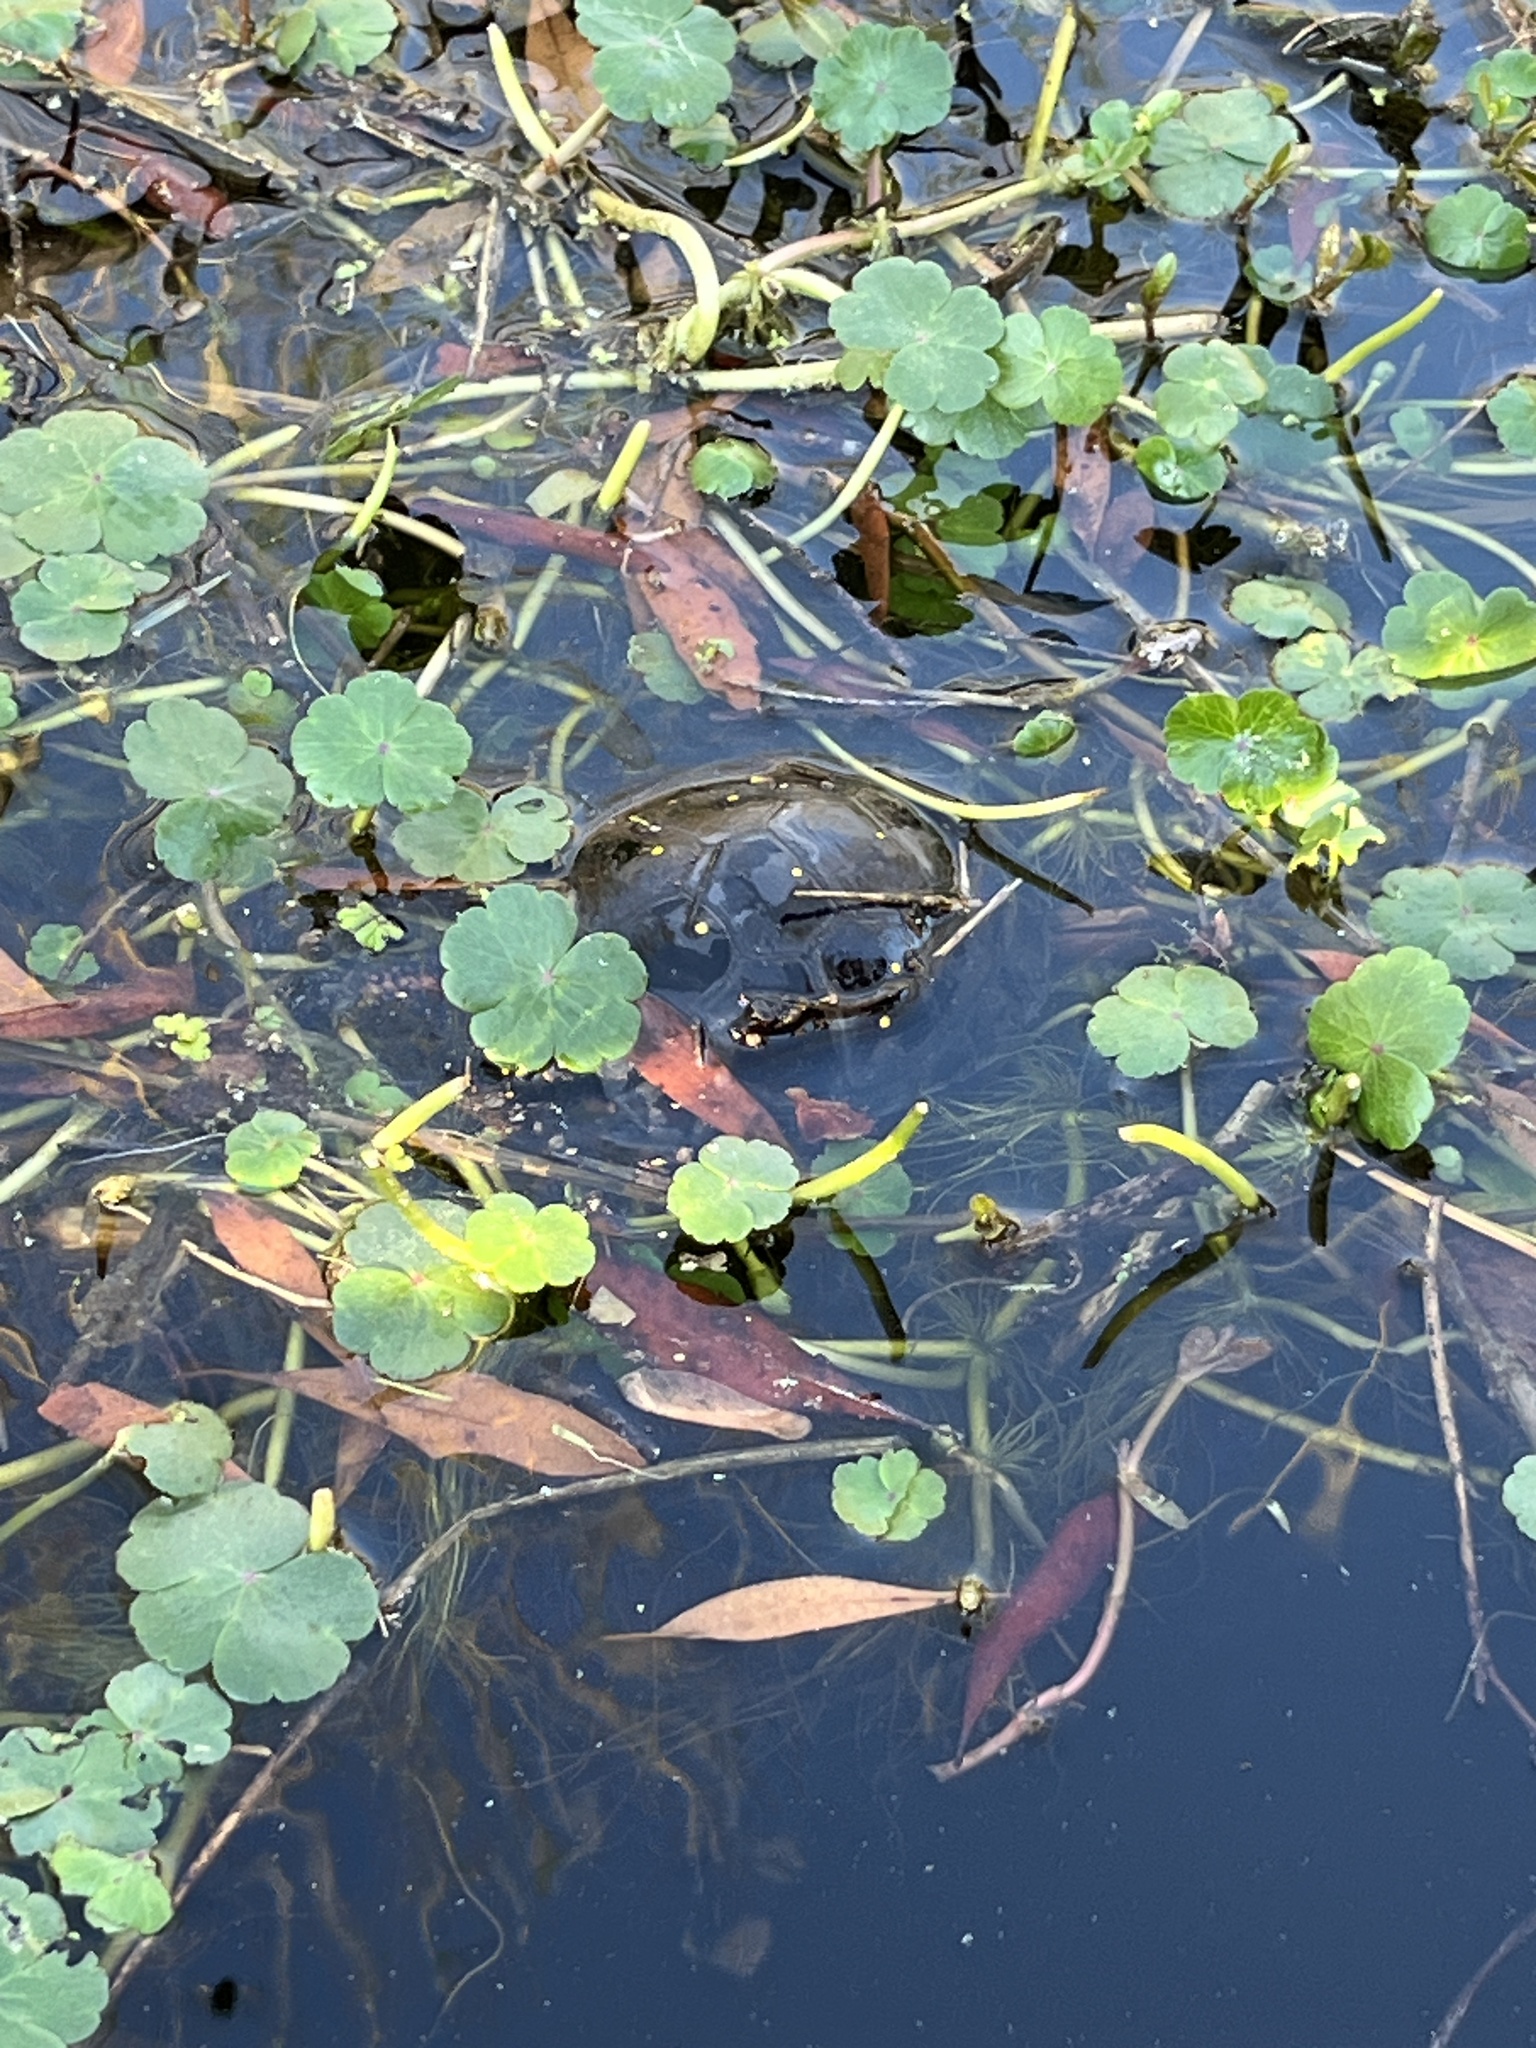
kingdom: Animalia
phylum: Chordata
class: Testudines
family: Emydidae
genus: Clemmys
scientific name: Clemmys guttata
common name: Spotted turtle
